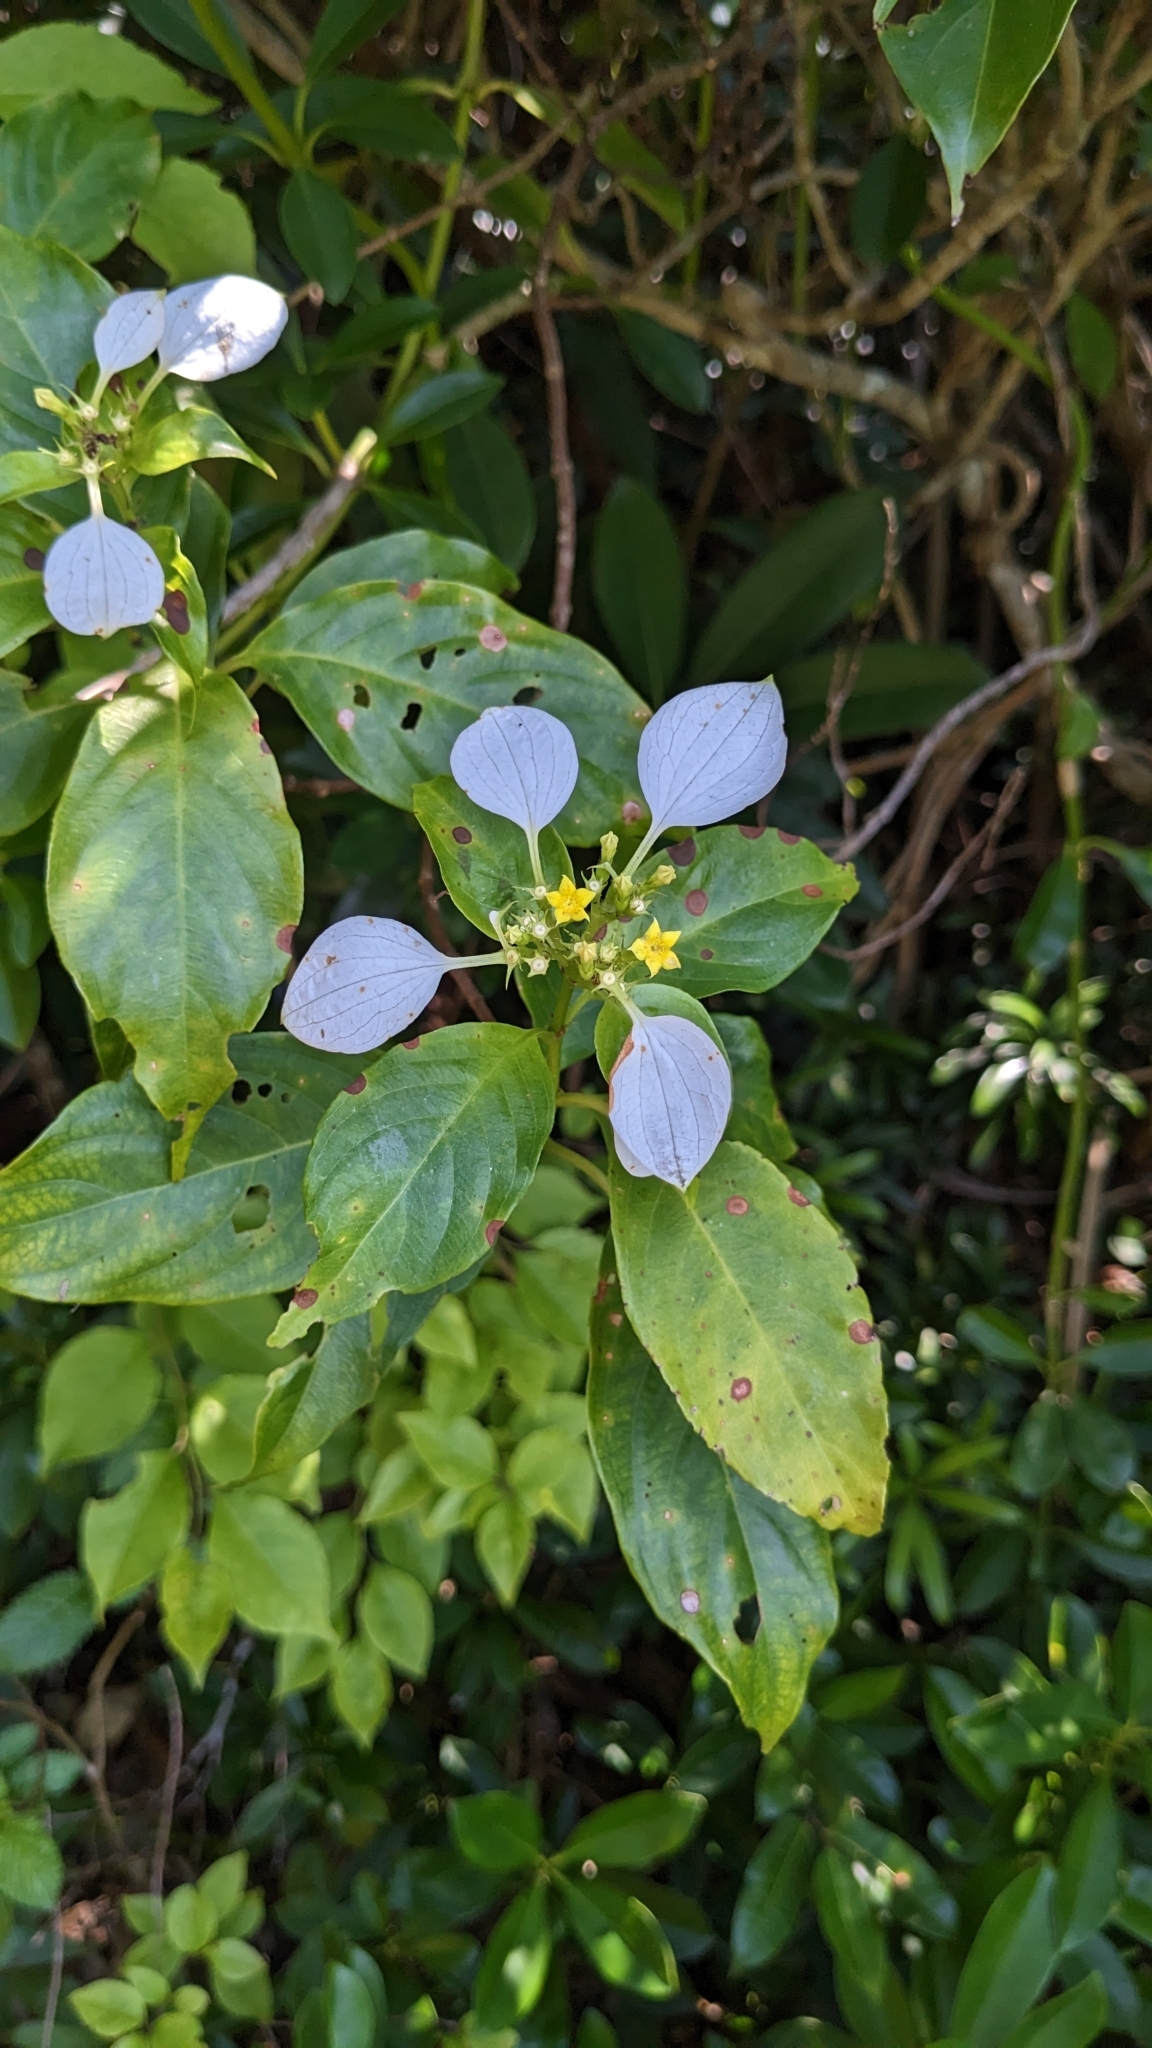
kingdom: Plantae
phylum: Tracheophyta
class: Magnoliopsida
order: Gentianales
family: Rubiaceae
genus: Mussaenda
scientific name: Mussaenda parviflora
